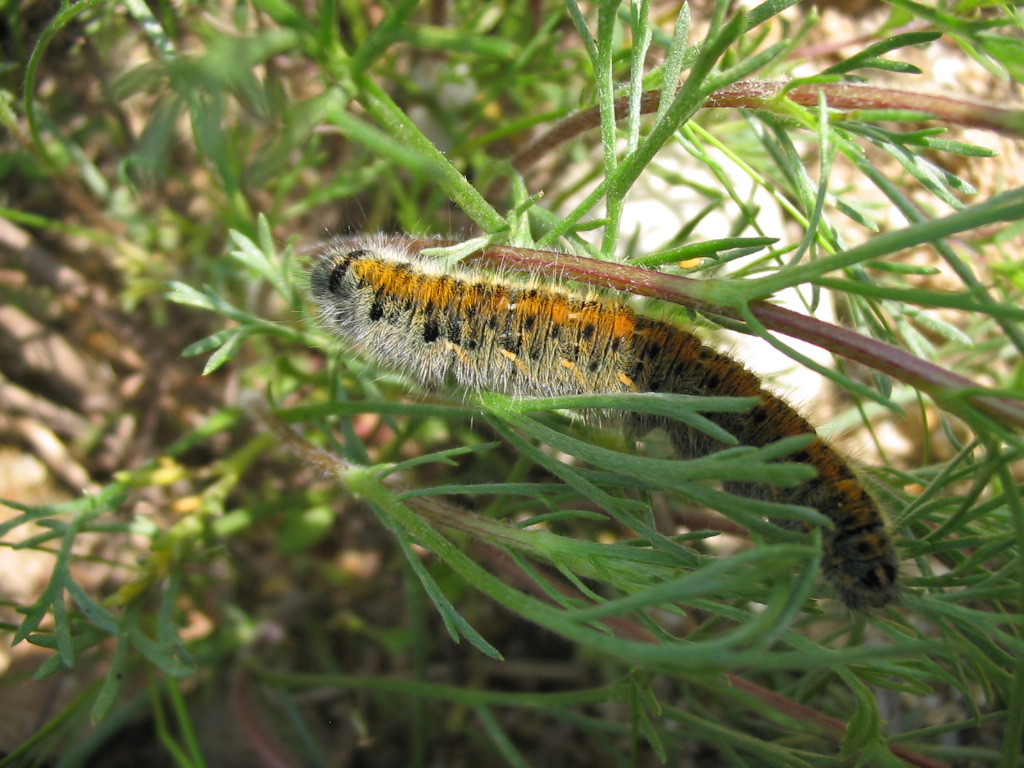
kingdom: Animalia
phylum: Arthropoda
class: Insecta
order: Lepidoptera
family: Lasiocampidae
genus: Lasiocampa
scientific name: Lasiocampa trifolii
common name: Grass eggar
